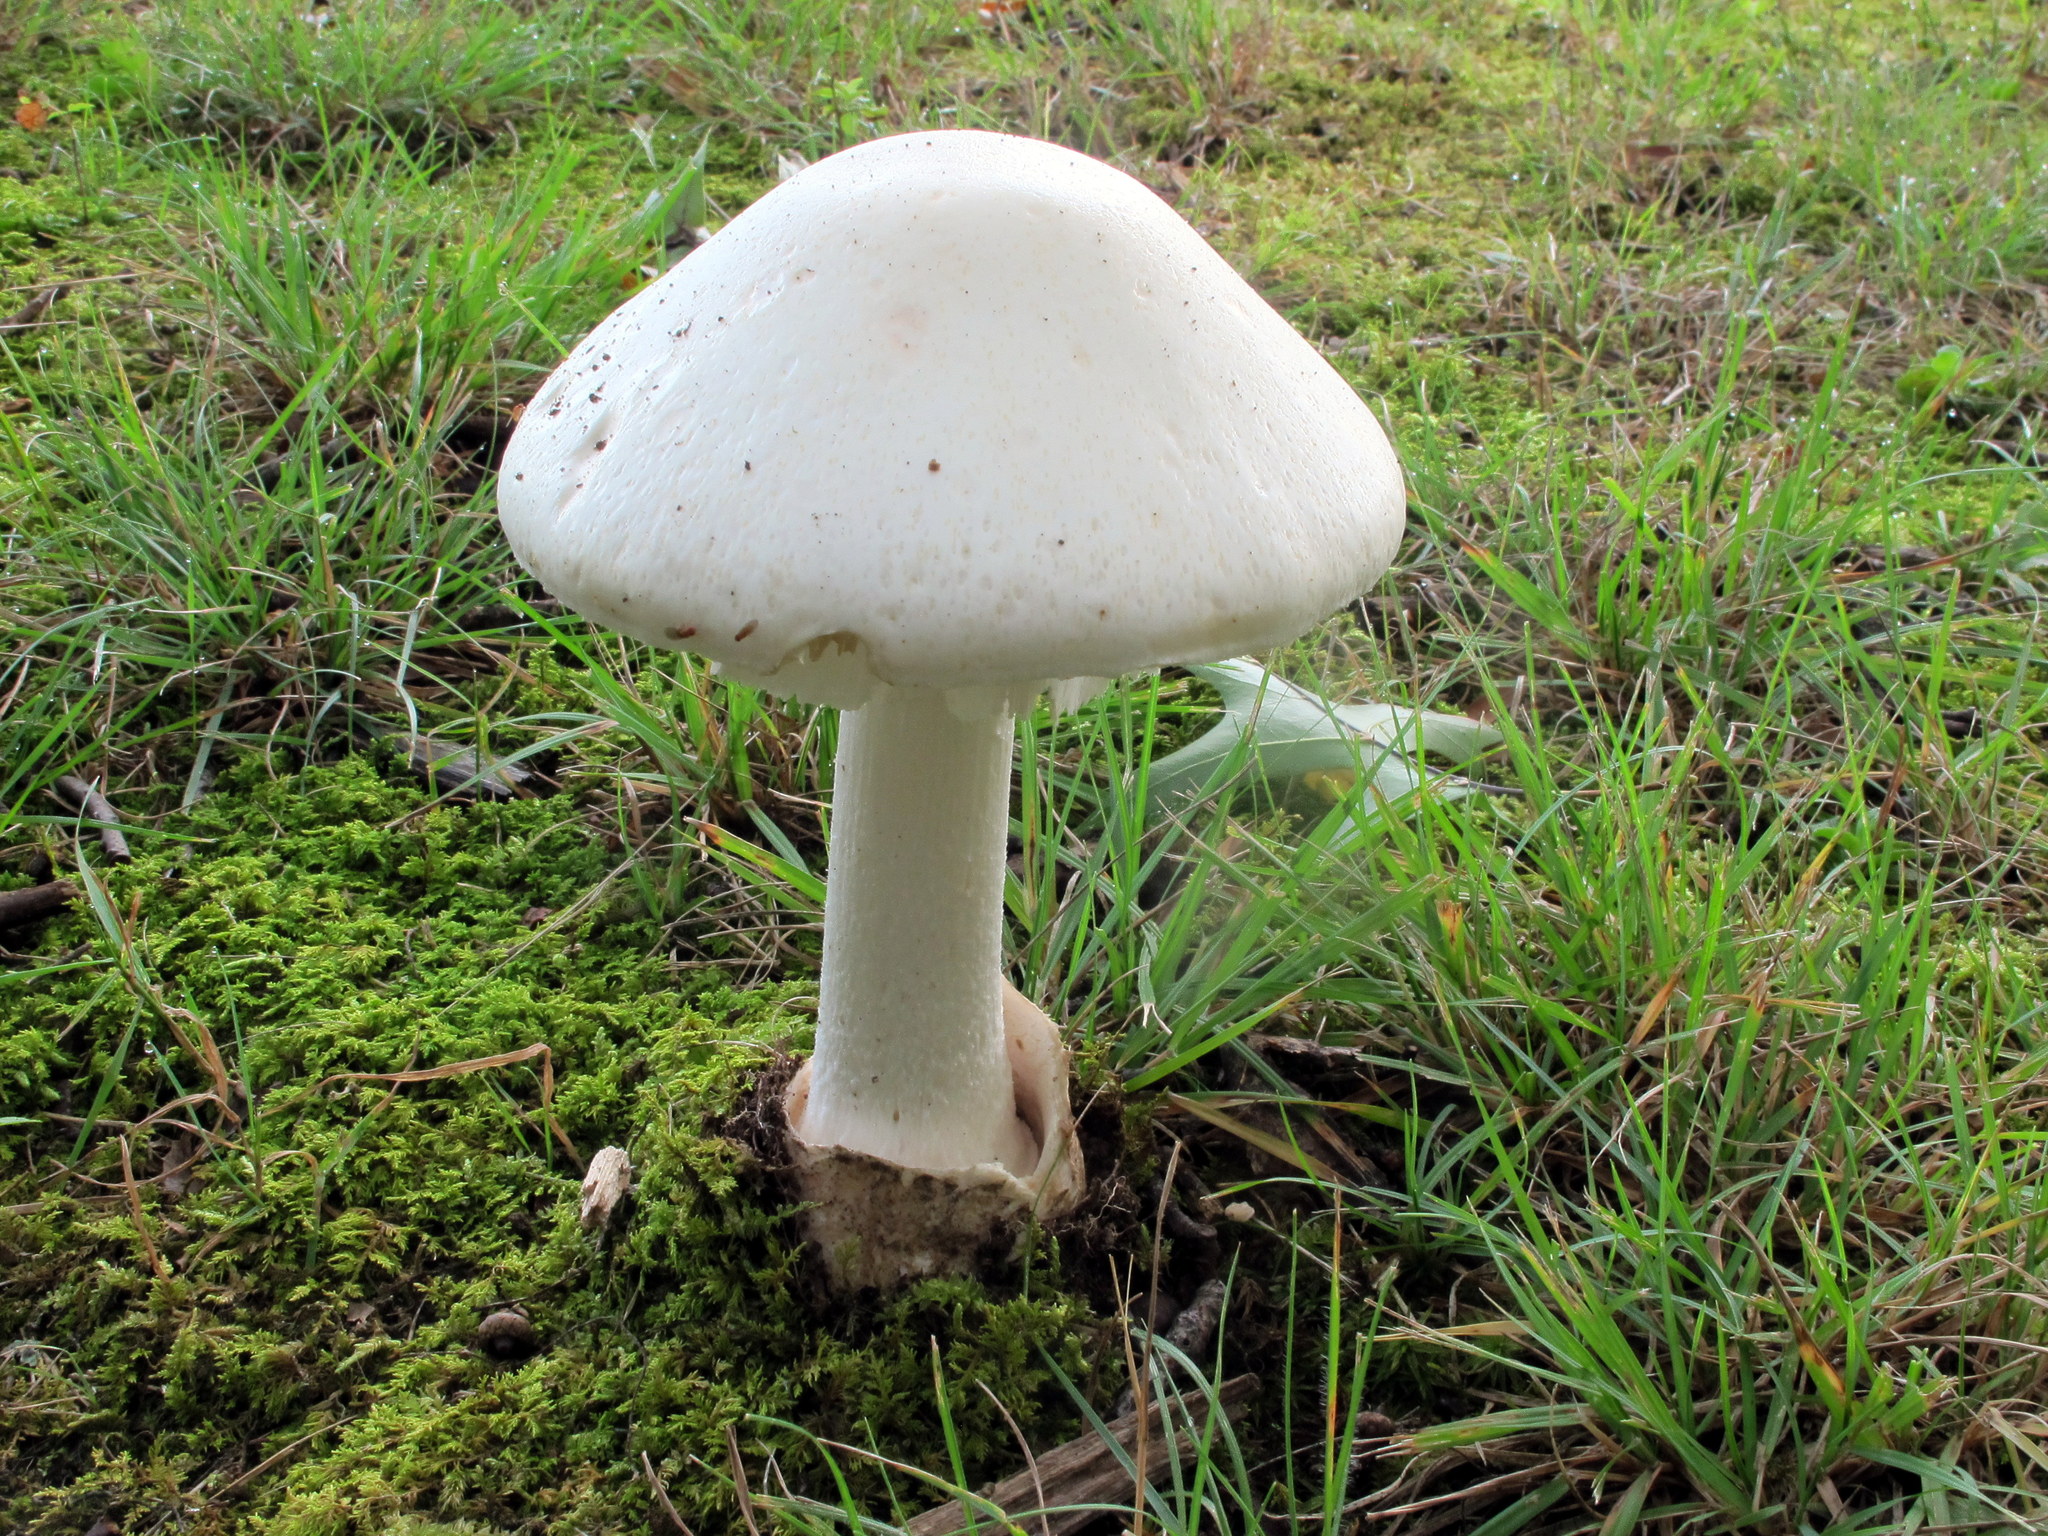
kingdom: Fungi
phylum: Basidiomycota
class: Agaricomycetes
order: Agaricales
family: Amanitaceae
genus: Amanita
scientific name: Amanita suballiacea
